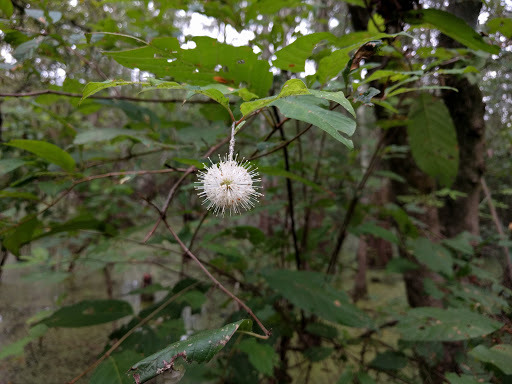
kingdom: Plantae
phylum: Tracheophyta
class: Magnoliopsida
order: Gentianales
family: Rubiaceae
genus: Cephalanthus
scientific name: Cephalanthus occidentalis
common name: Button-willow
